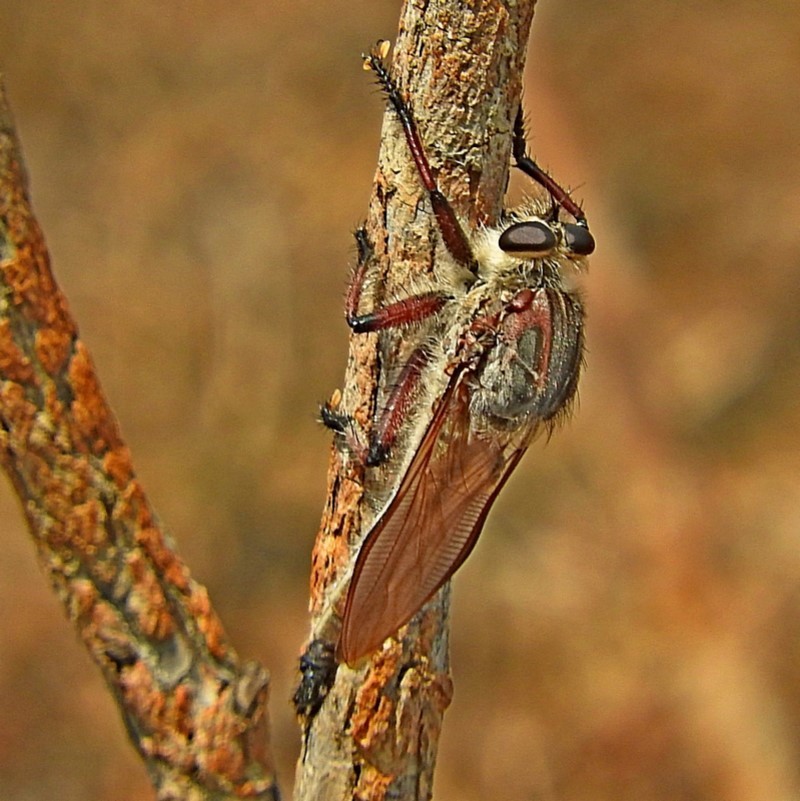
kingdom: Animalia
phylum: Arthropoda
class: Insecta
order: Diptera
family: Asilidae
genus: Neoaratus
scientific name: Neoaratus hercules
